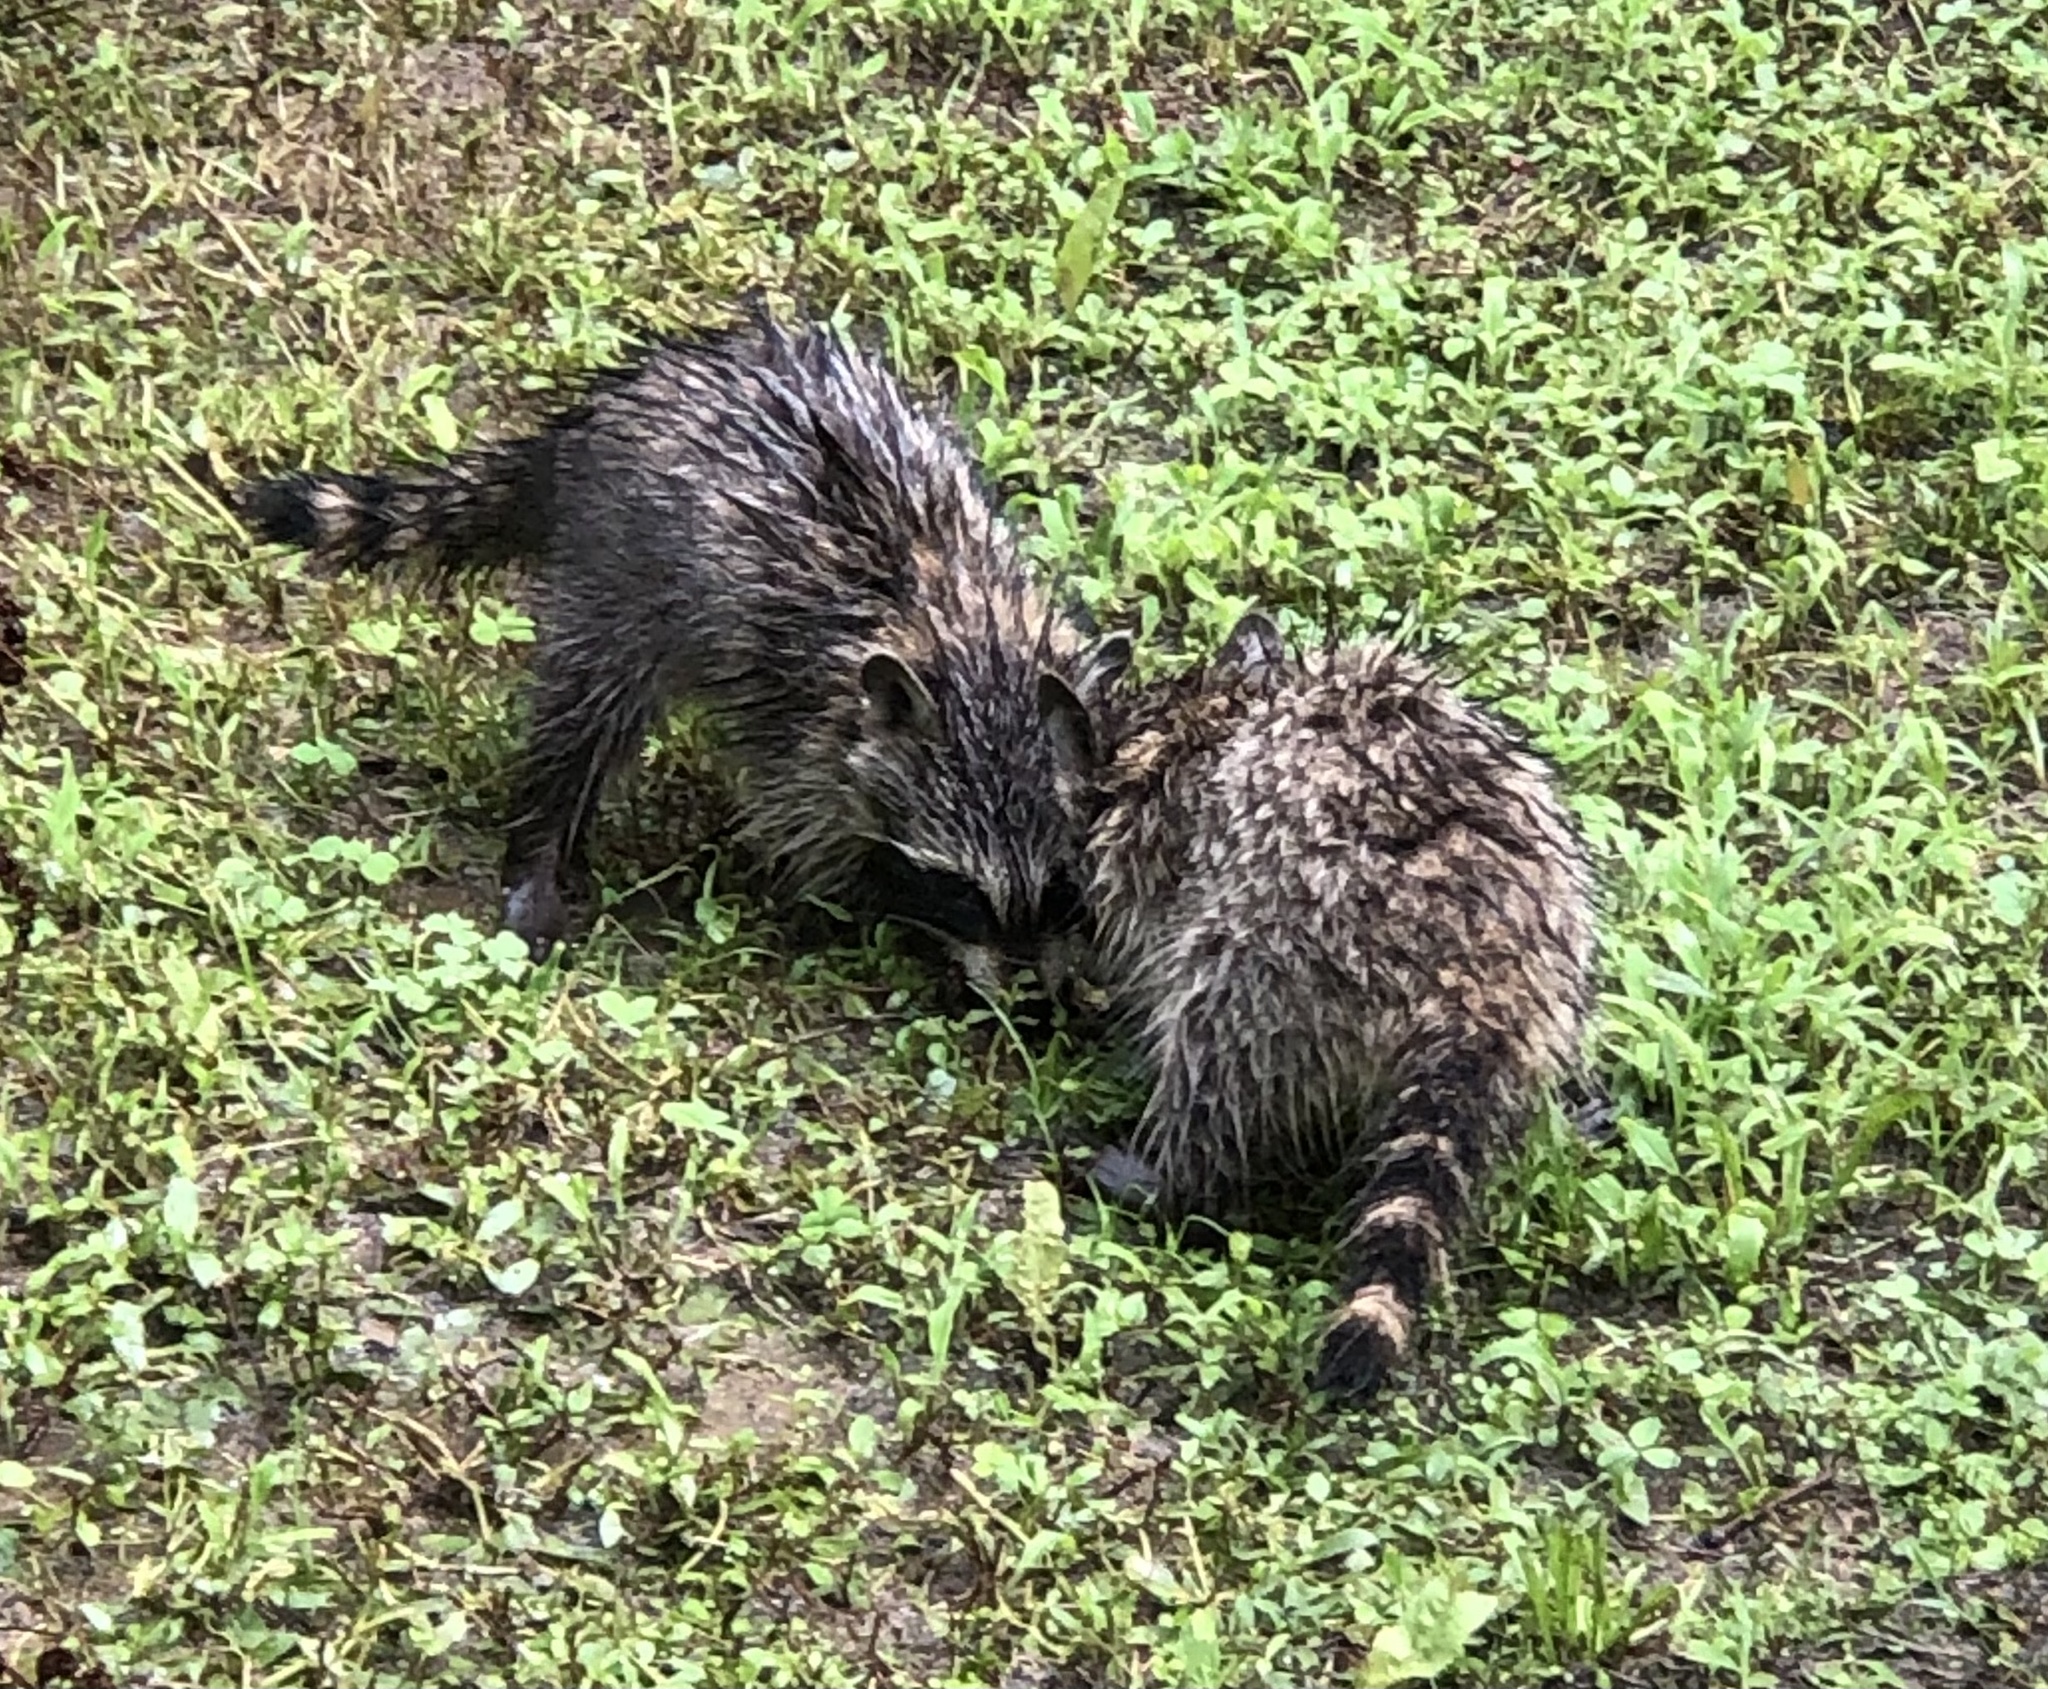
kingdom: Animalia
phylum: Chordata
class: Mammalia
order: Carnivora
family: Procyonidae
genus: Procyon
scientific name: Procyon lotor
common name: Raccoon
